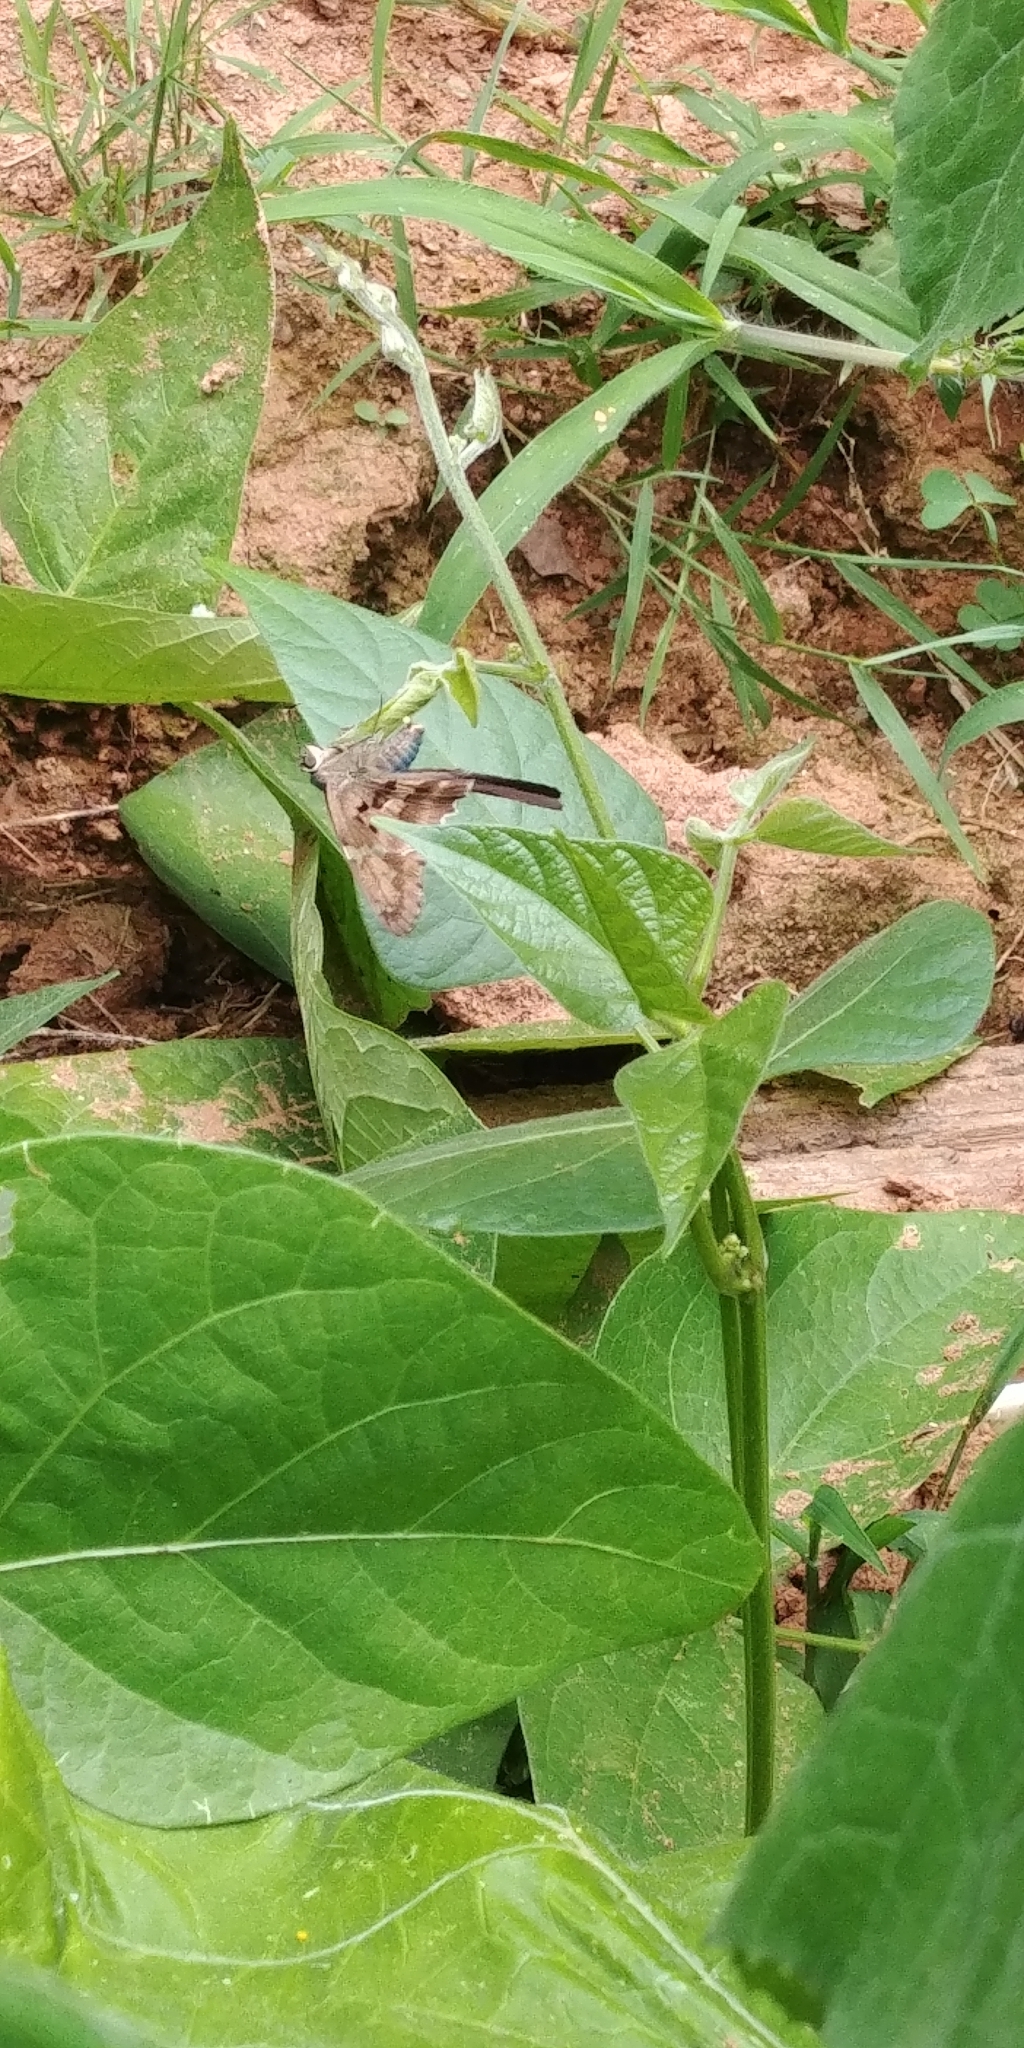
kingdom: Animalia
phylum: Arthropoda
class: Insecta
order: Lepidoptera
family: Hesperiidae
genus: Urbanus
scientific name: Urbanus proteus
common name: Long-tailed skipper
